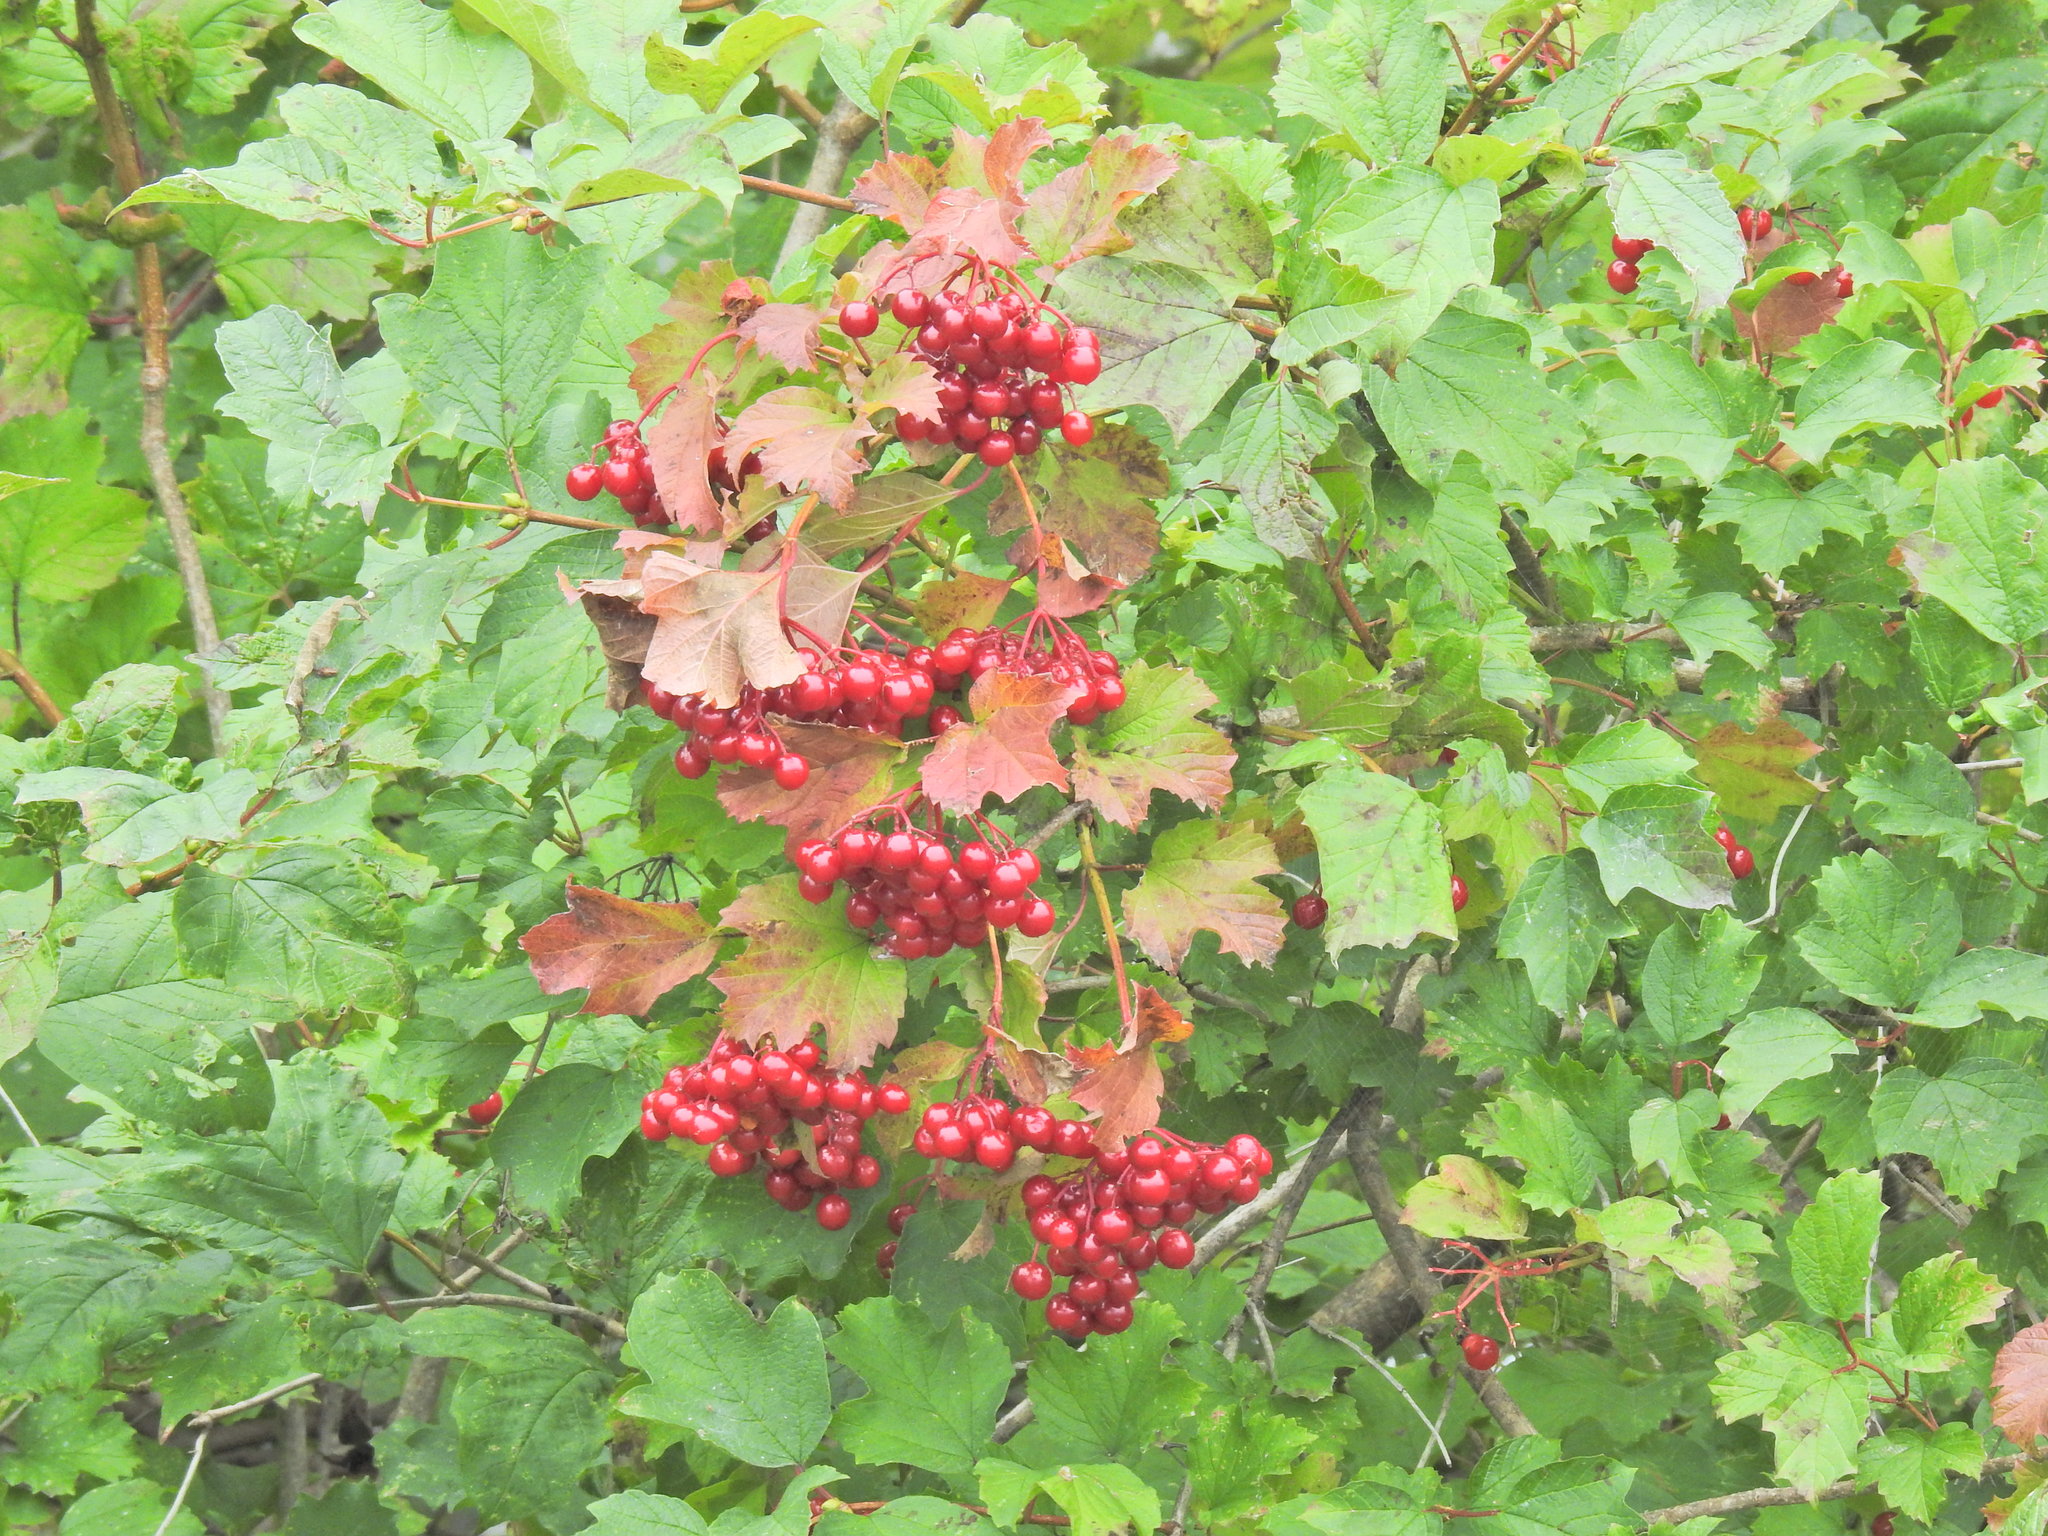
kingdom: Plantae
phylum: Tracheophyta
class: Magnoliopsida
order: Dipsacales
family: Viburnaceae
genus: Viburnum
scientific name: Viburnum opulus
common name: Guelder-rose
